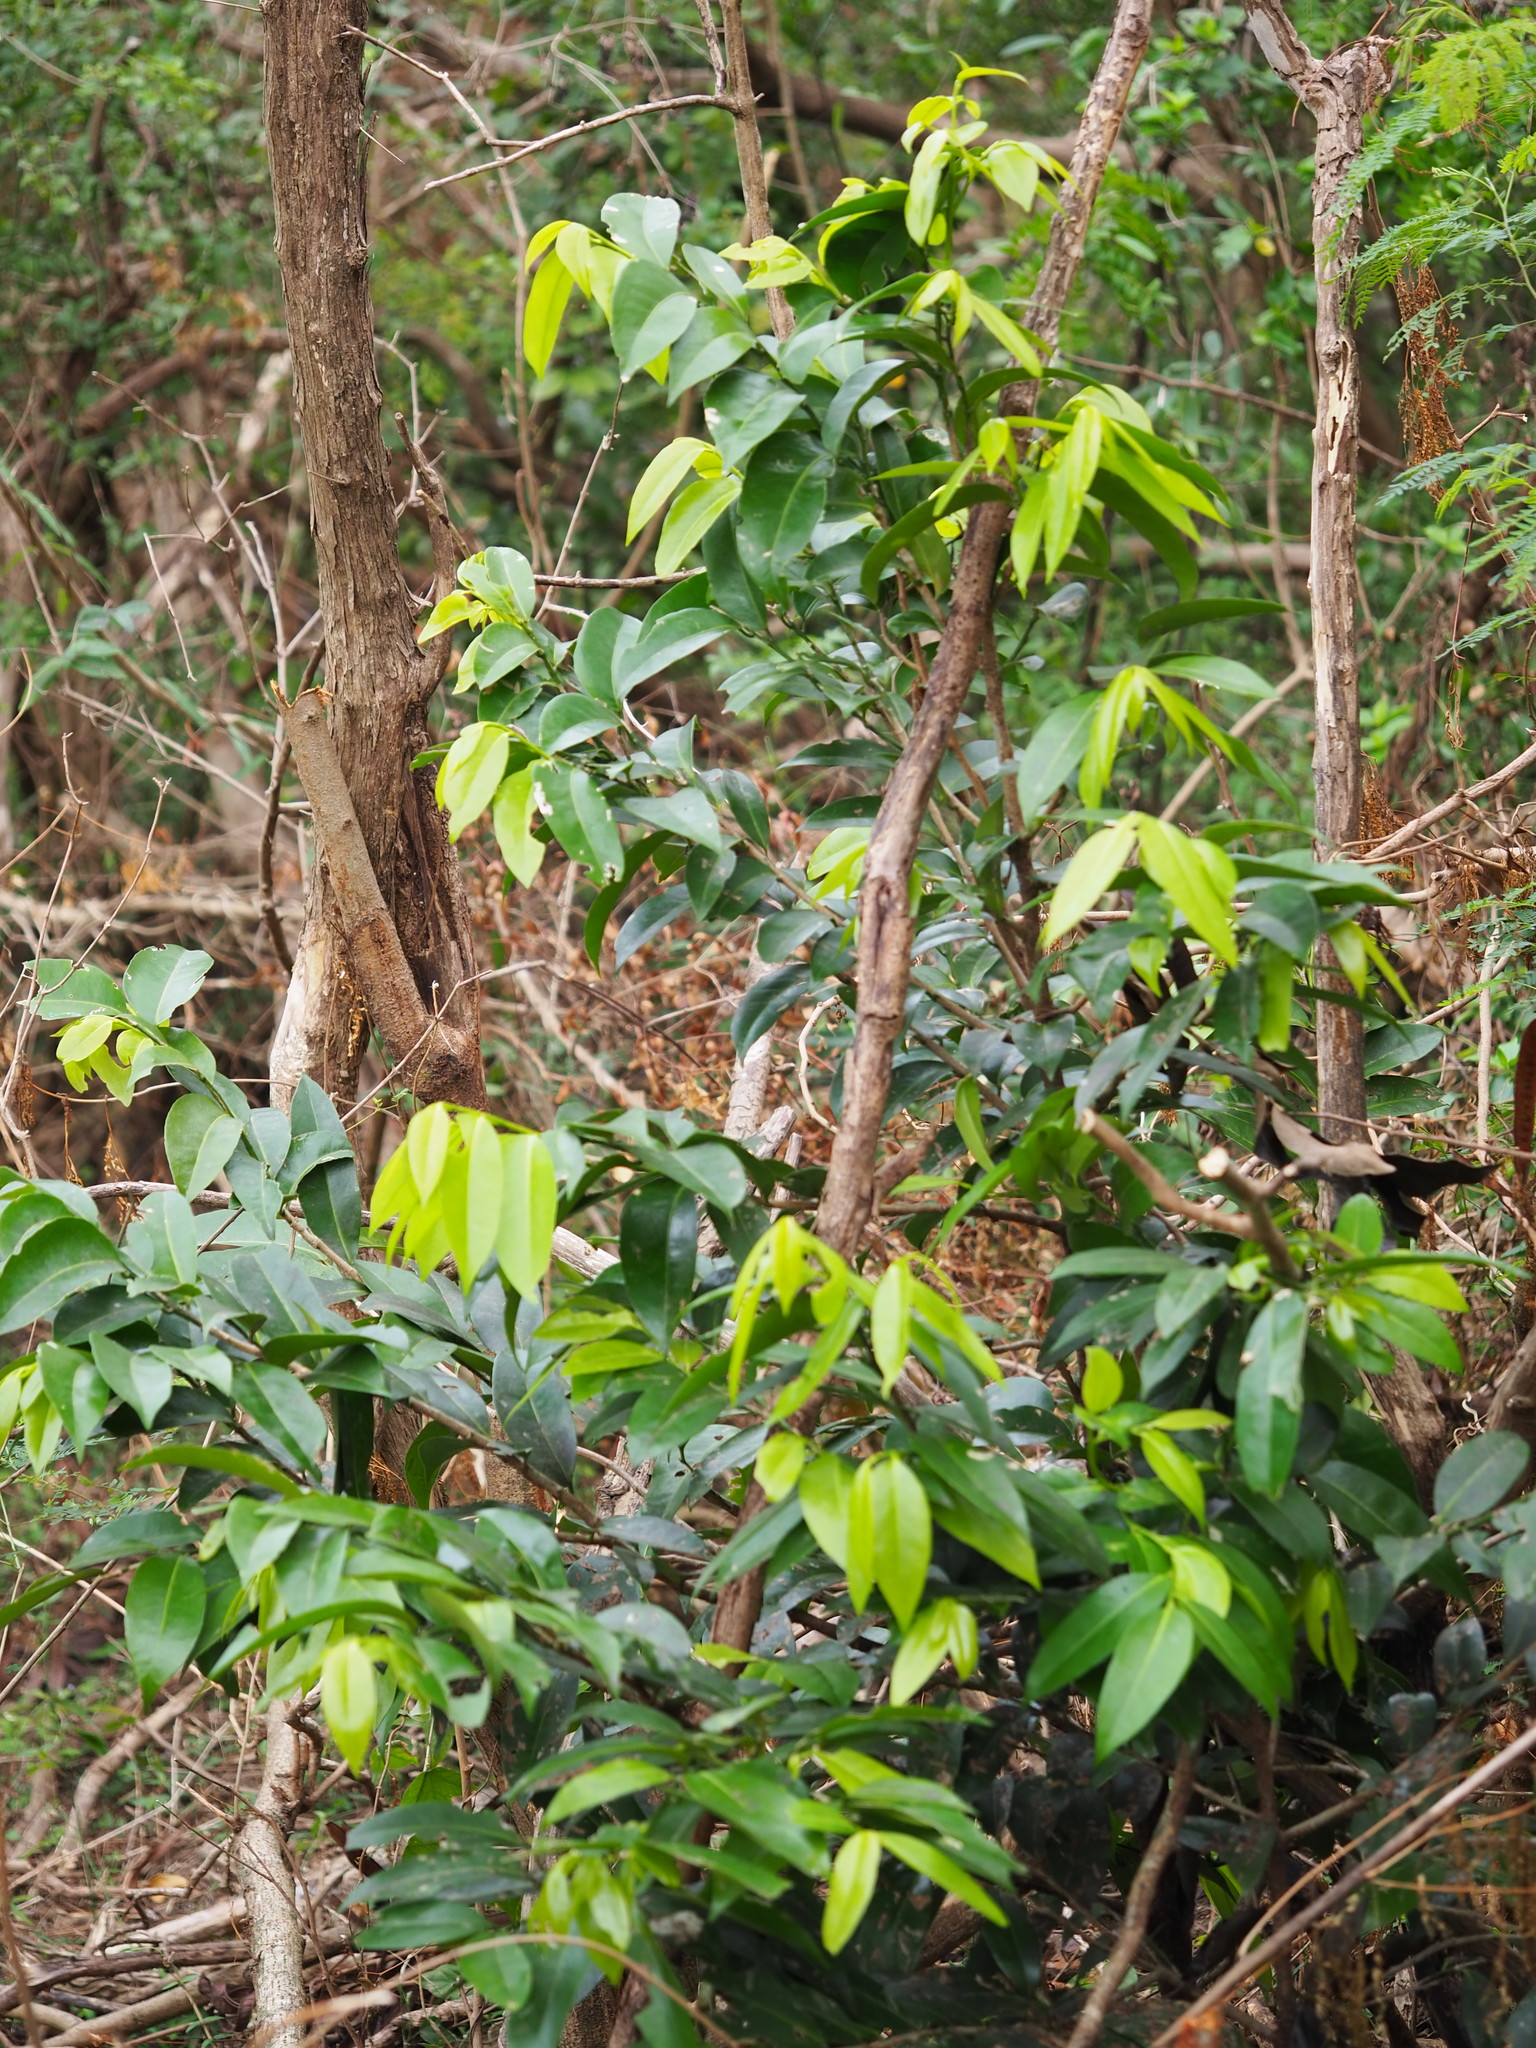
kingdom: Plantae
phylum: Tracheophyta
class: Magnoliopsida
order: Malpighiales
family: Putranjivaceae
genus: Drypetes
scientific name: Drypetes littoralis
